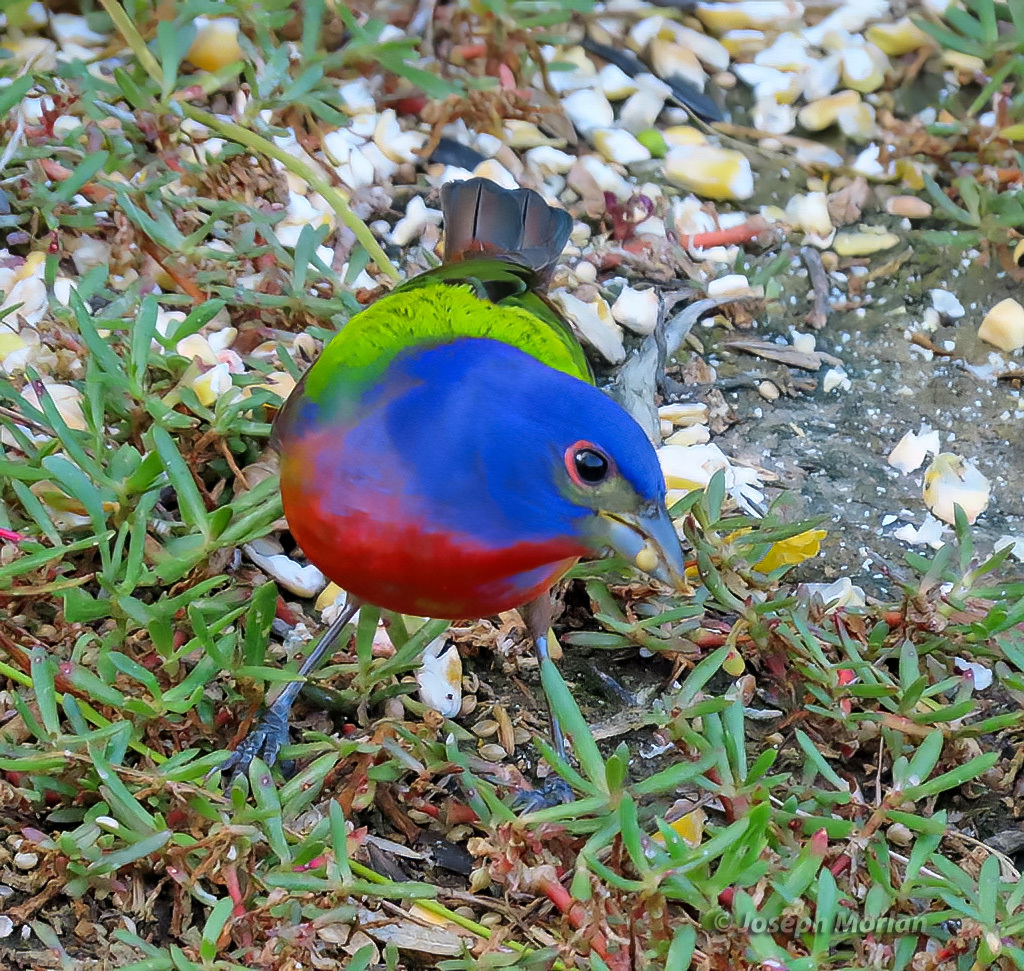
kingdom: Animalia
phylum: Chordata
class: Aves
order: Passeriformes
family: Cardinalidae
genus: Passerina
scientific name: Passerina ciris
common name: Painted bunting
